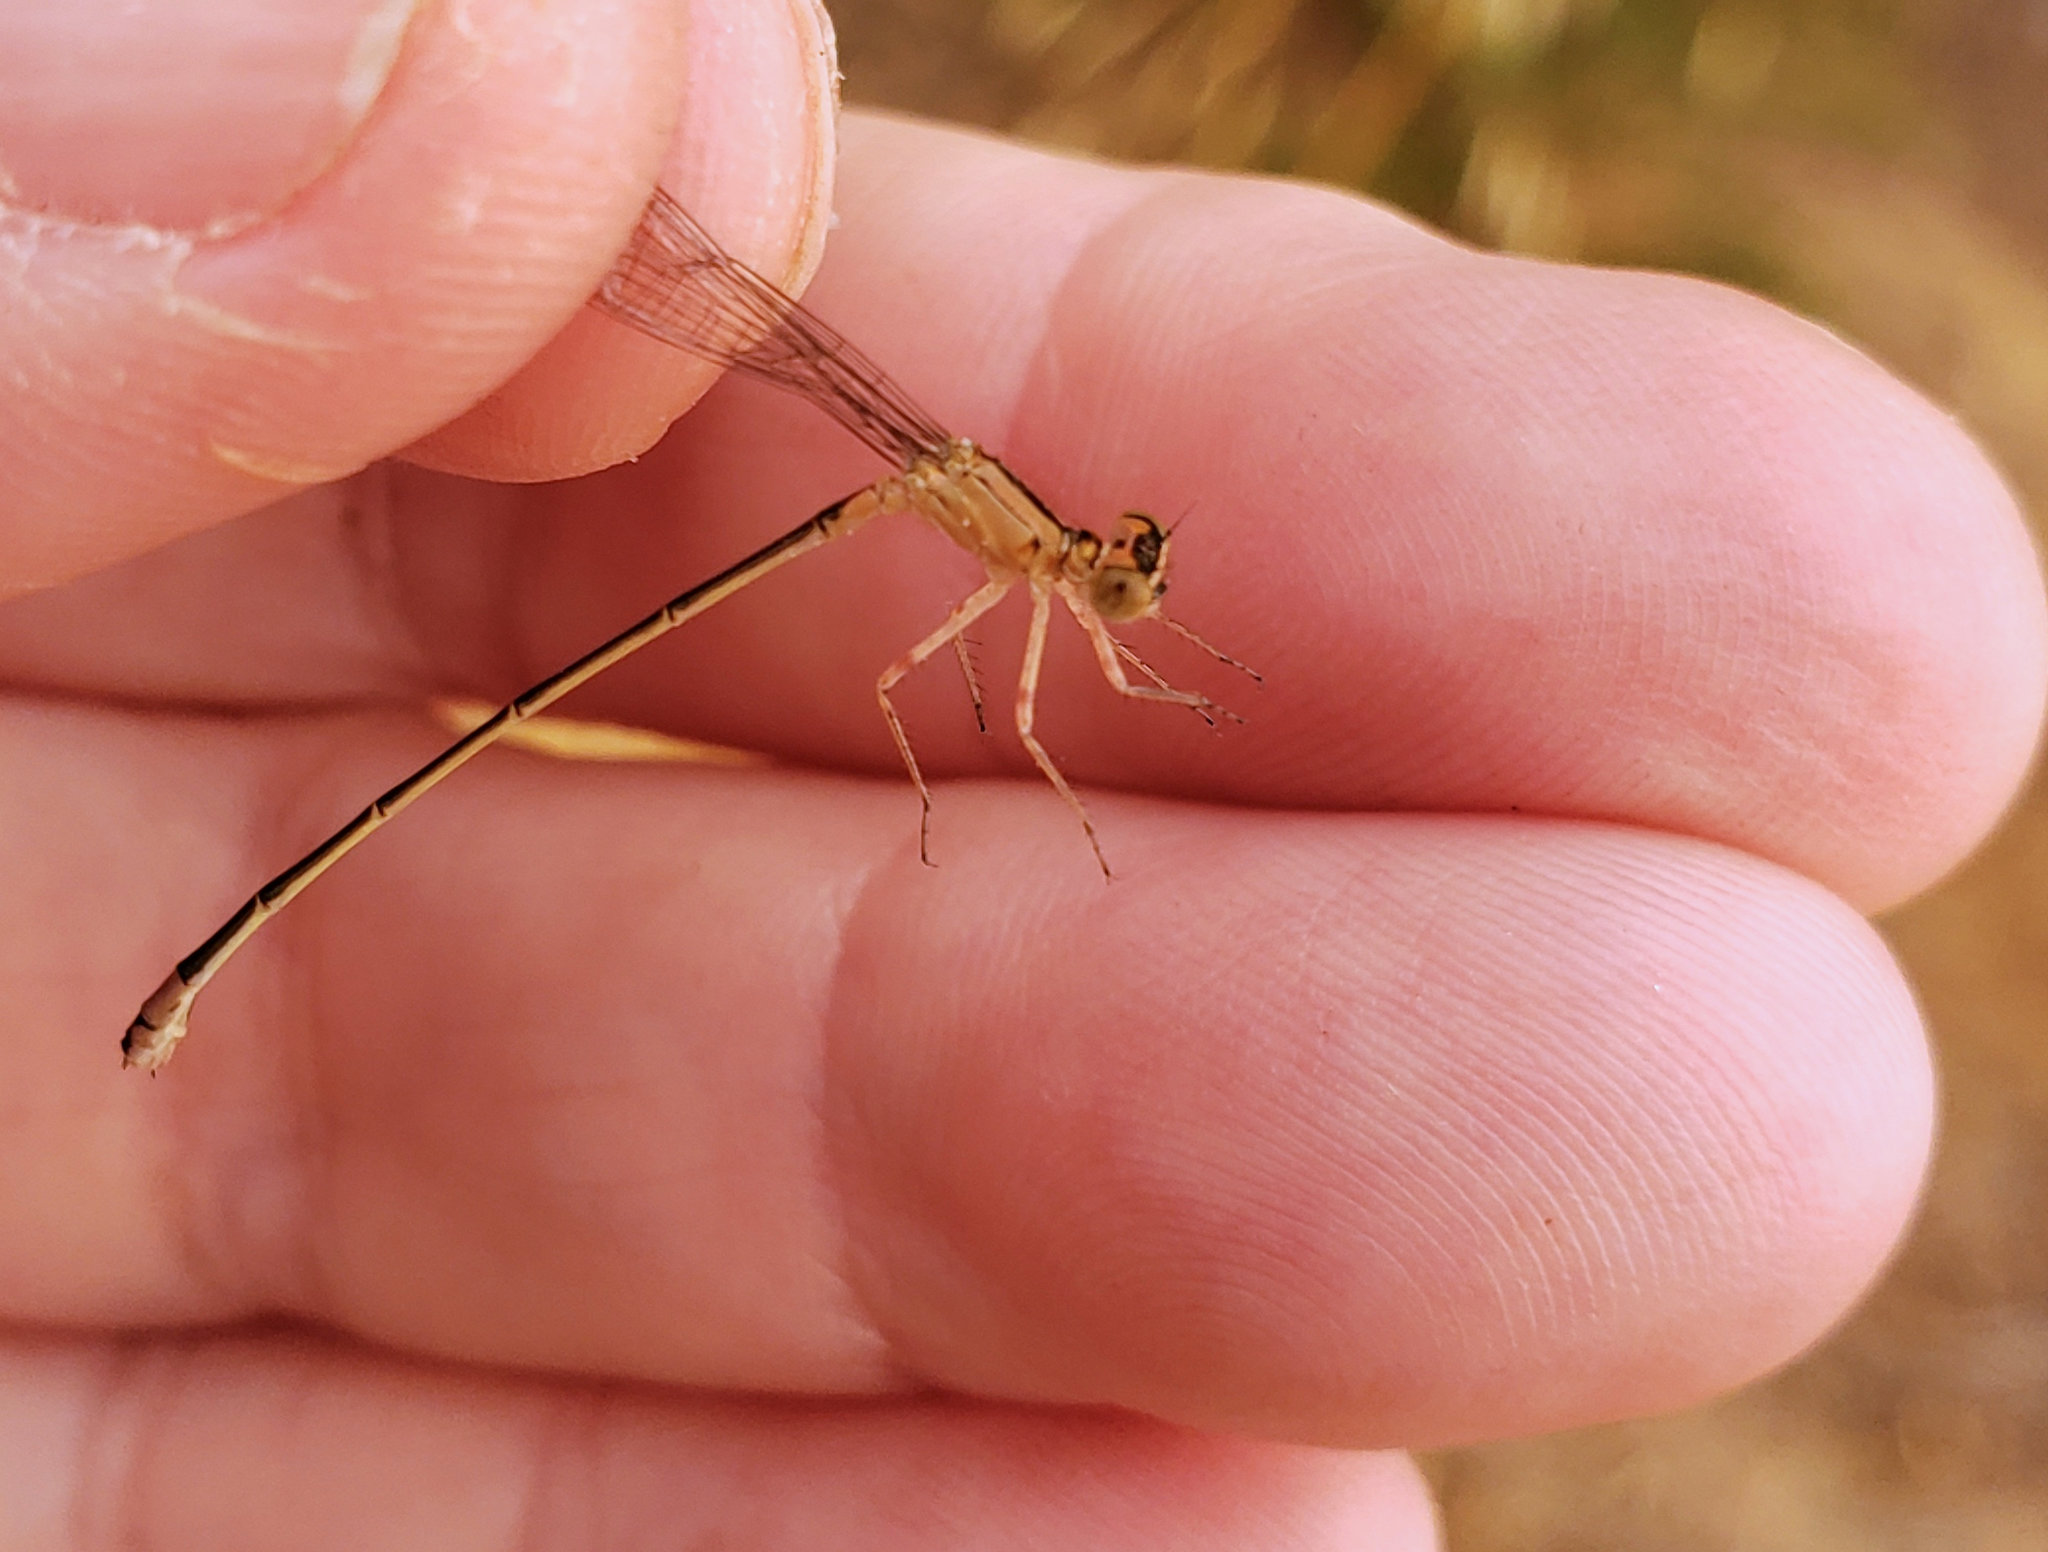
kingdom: Animalia
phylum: Arthropoda
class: Insecta
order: Odonata
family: Coenagrionidae
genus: Ischnura
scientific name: Ischnura cervula
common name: Pacific forktail
